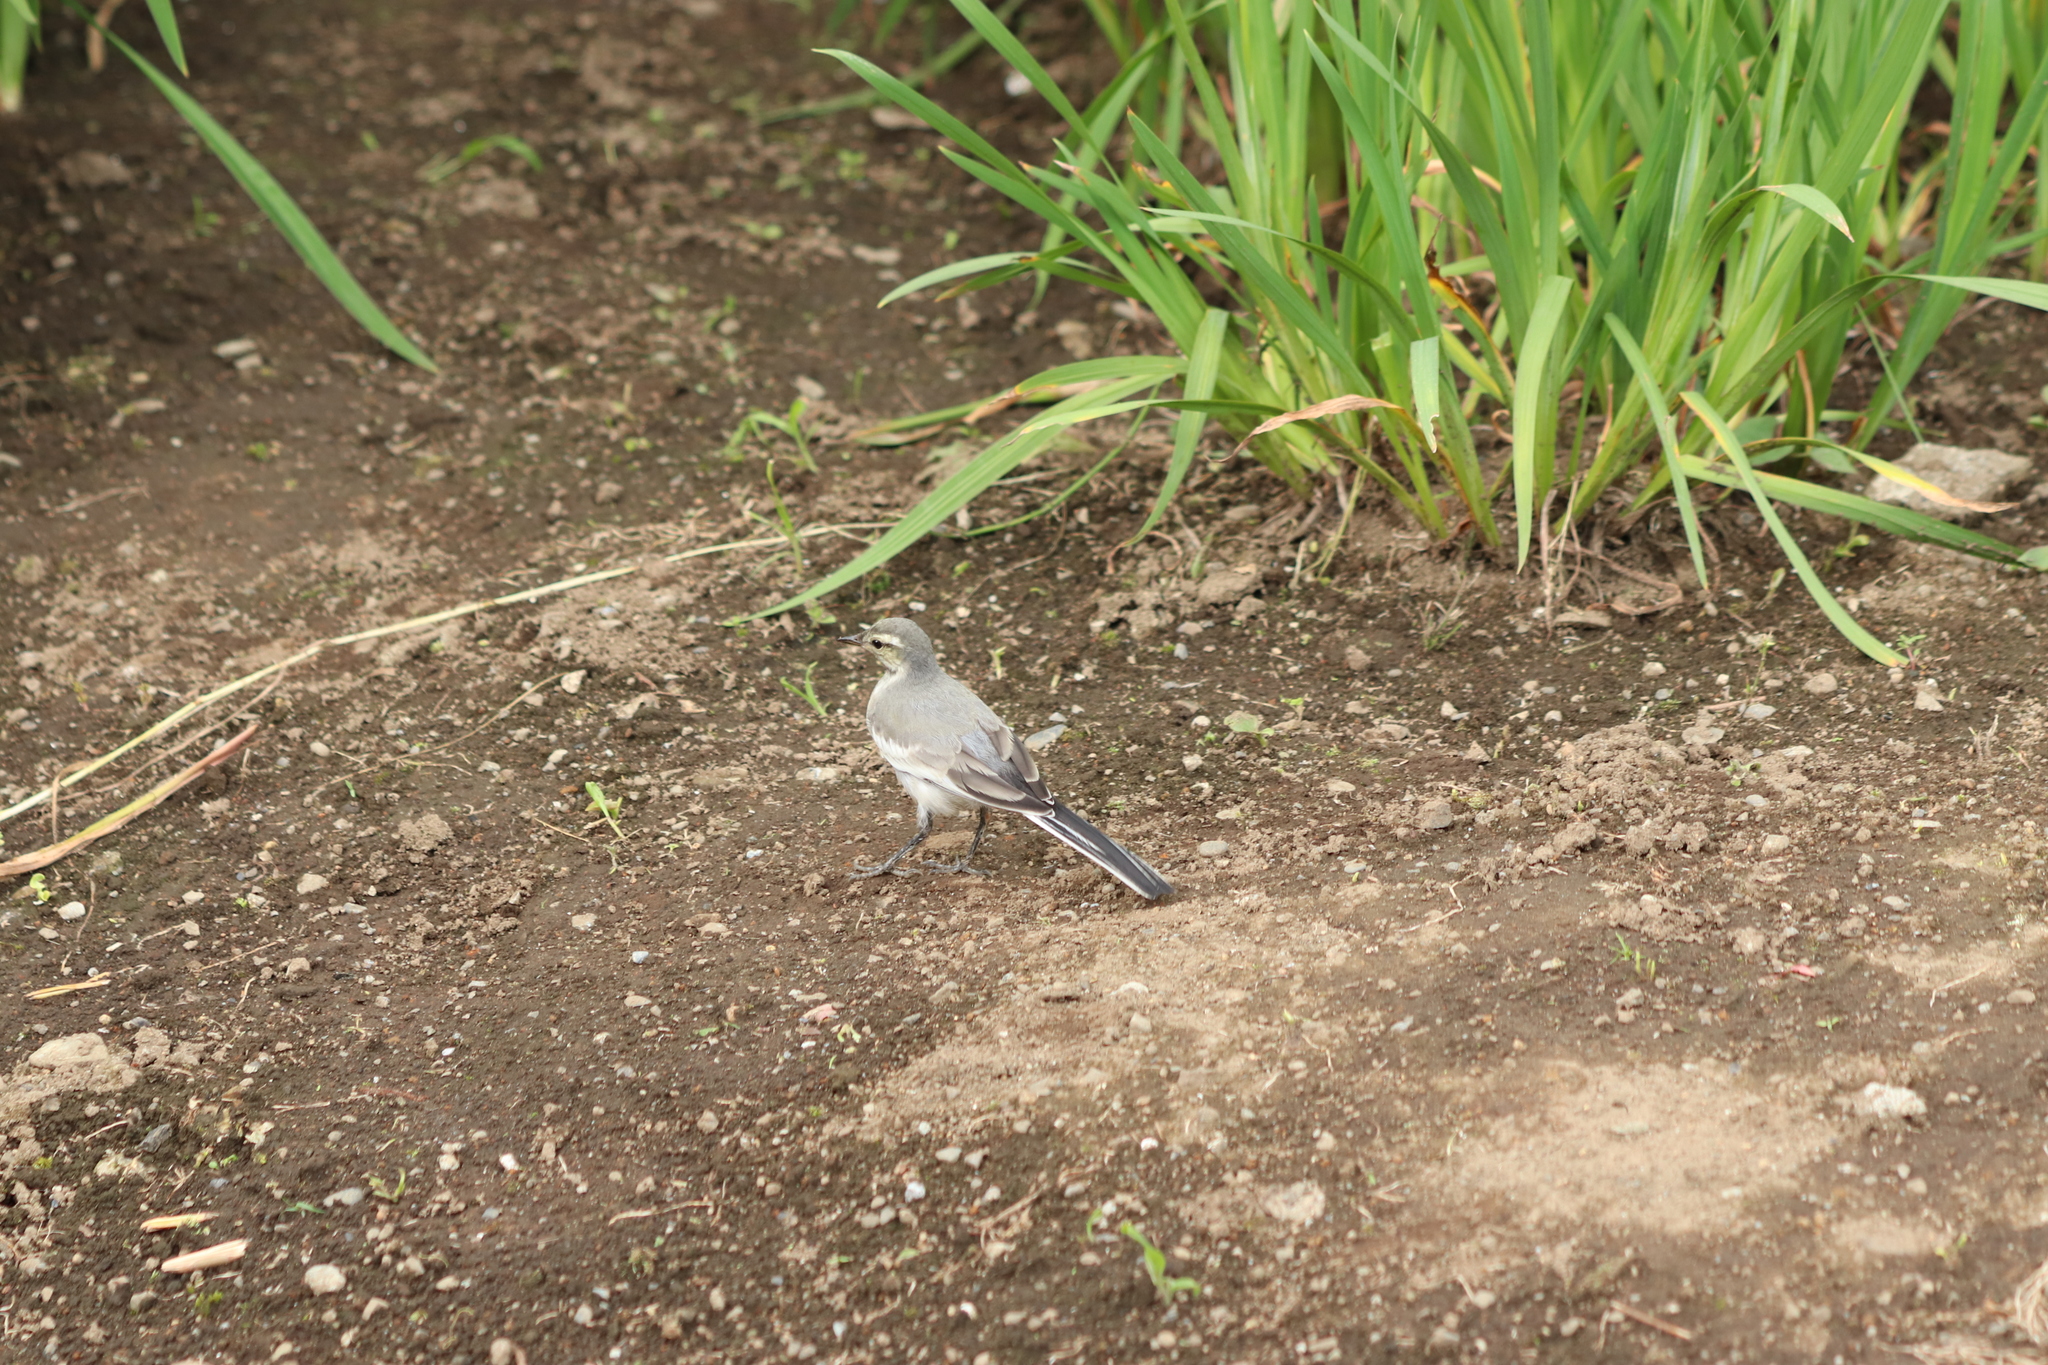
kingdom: Animalia
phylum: Chordata
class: Aves
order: Passeriformes
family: Motacillidae
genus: Motacilla
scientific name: Motacilla alba
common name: White wagtail
